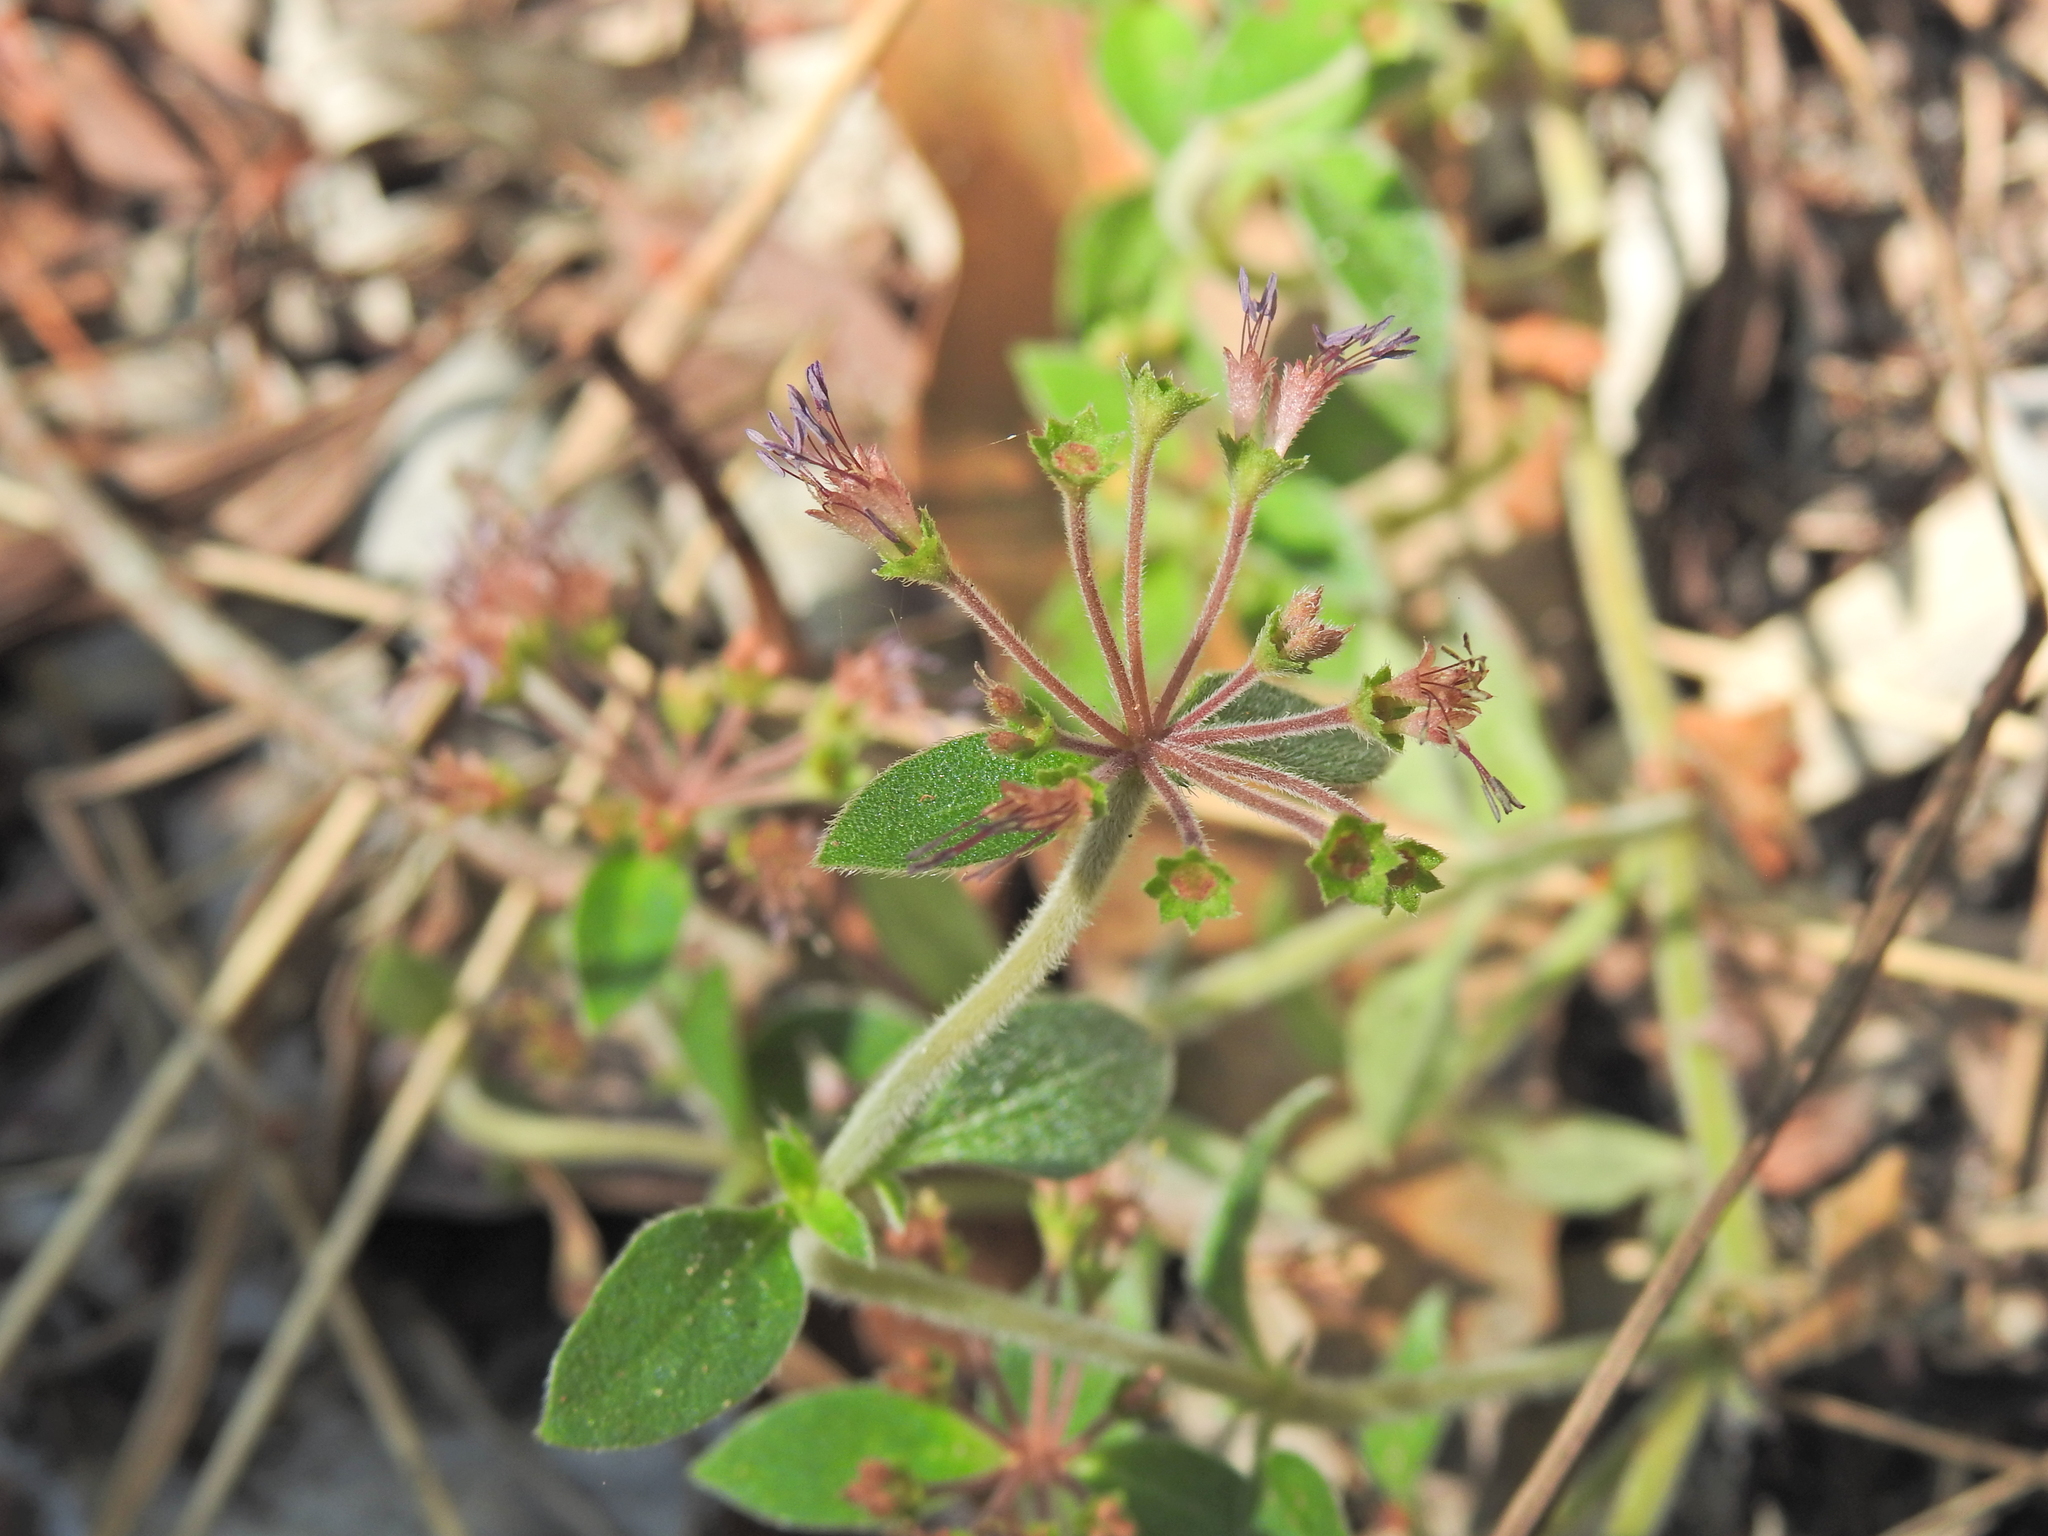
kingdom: Plantae
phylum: Tracheophyta
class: Magnoliopsida
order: Gentianales
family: Rubiaceae
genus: Pomax
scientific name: Pomax umbellata
